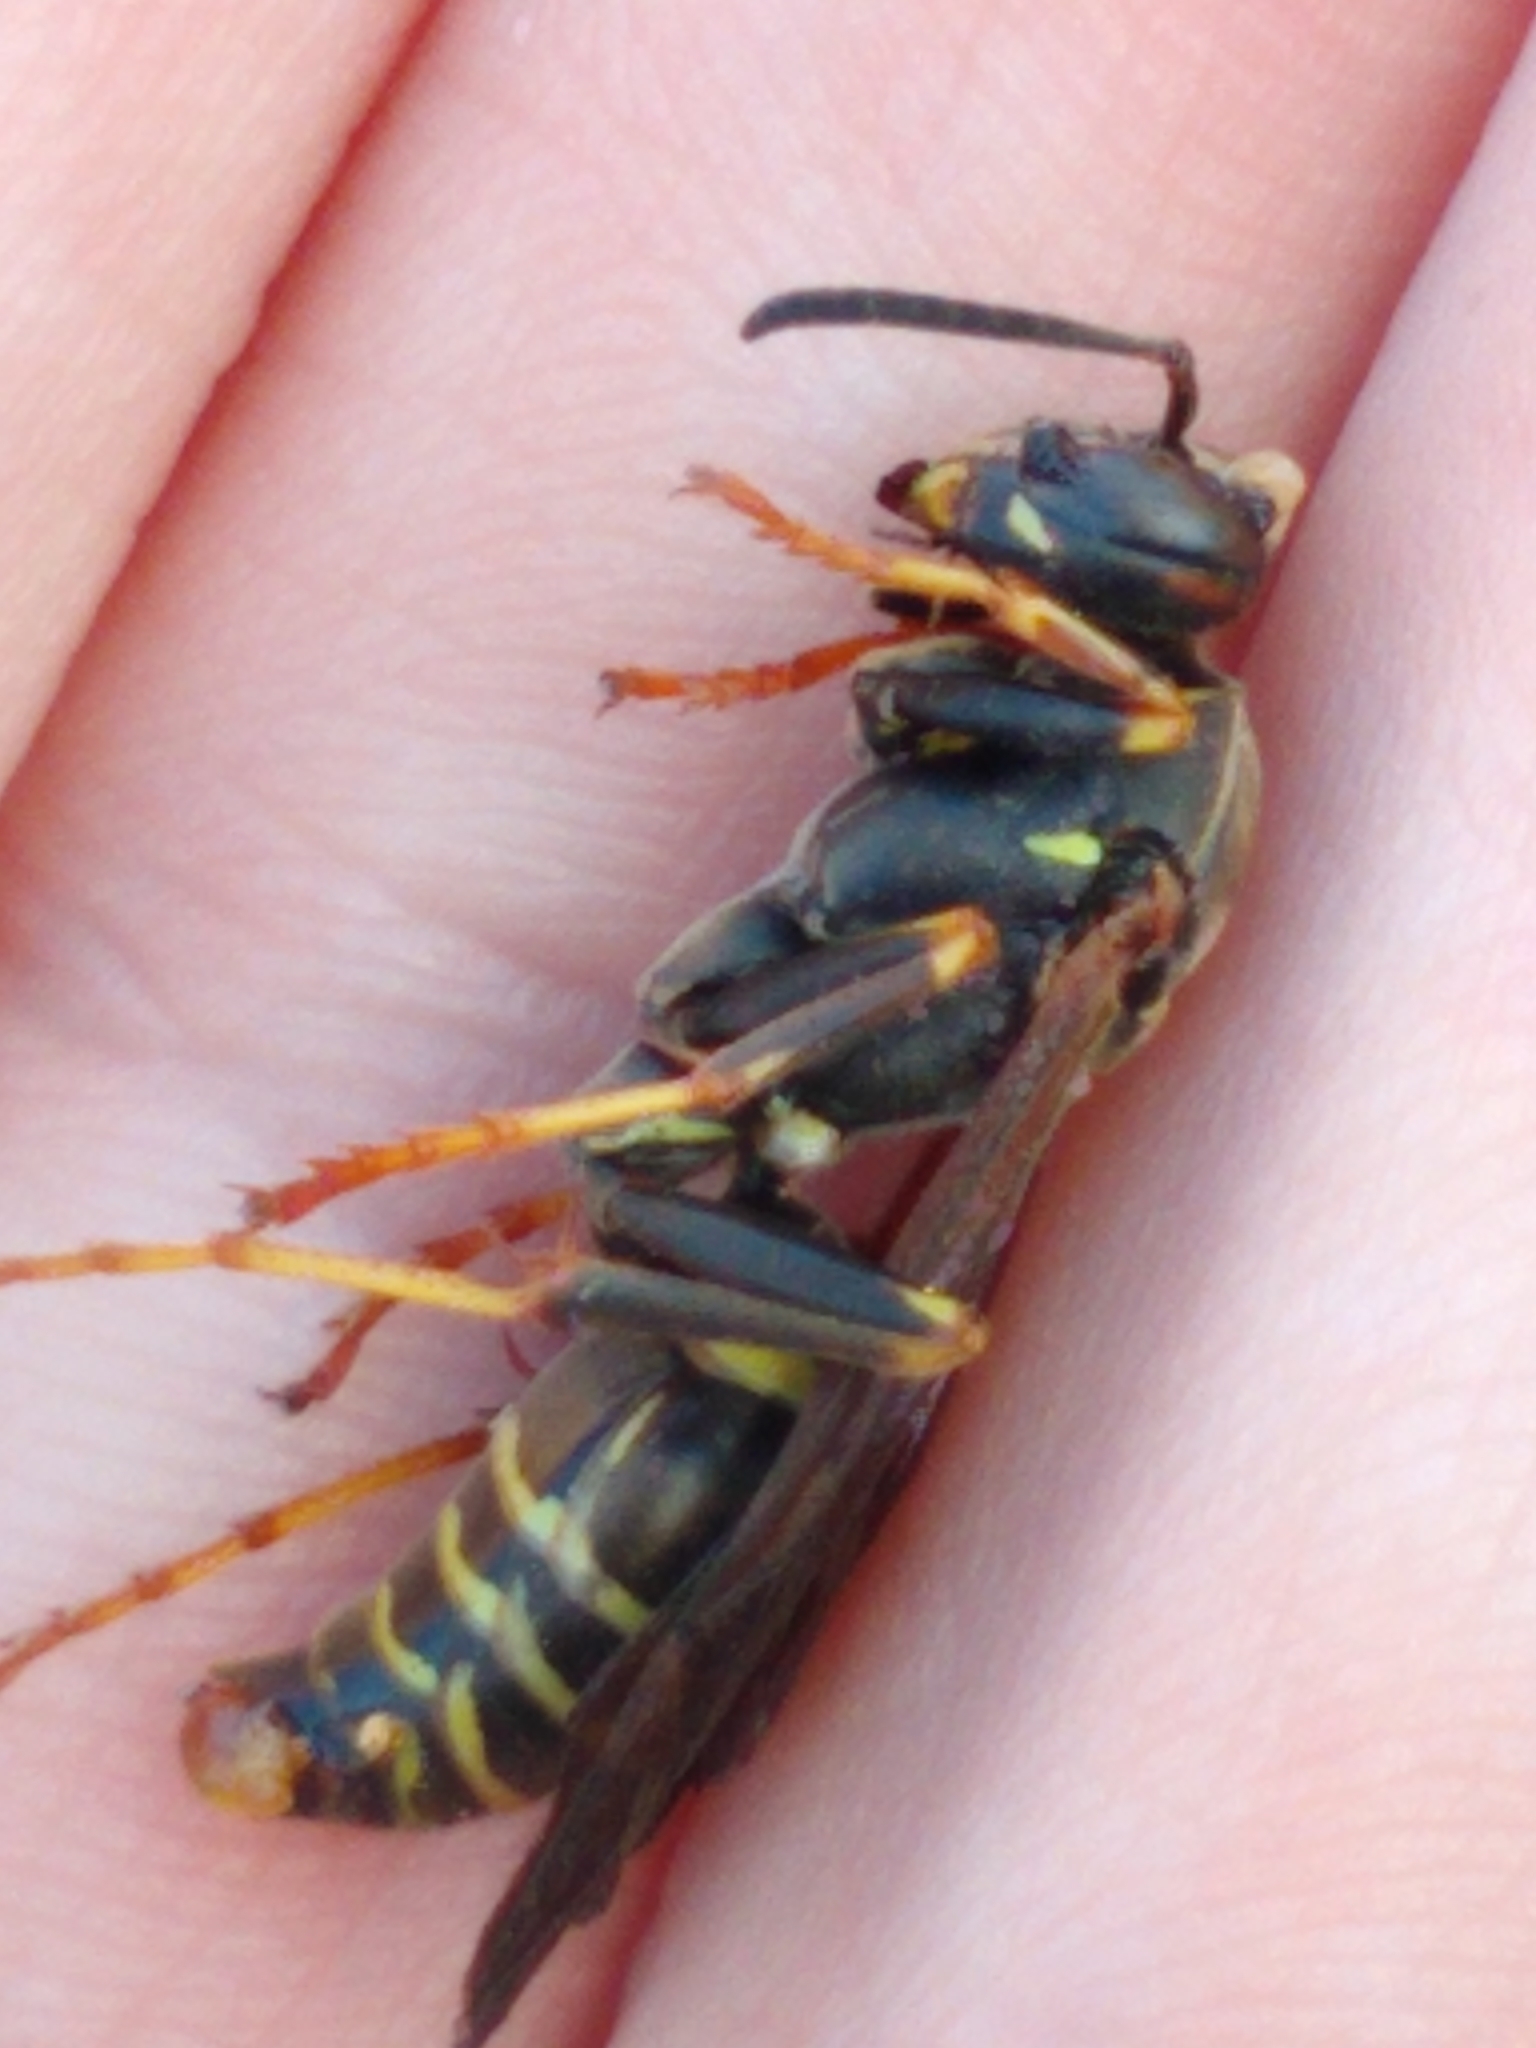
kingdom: Animalia
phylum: Arthropoda
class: Insecta
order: Hymenoptera
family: Eumenidae
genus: Polistes
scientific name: Polistes fuscatus
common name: Dark paper wasp
